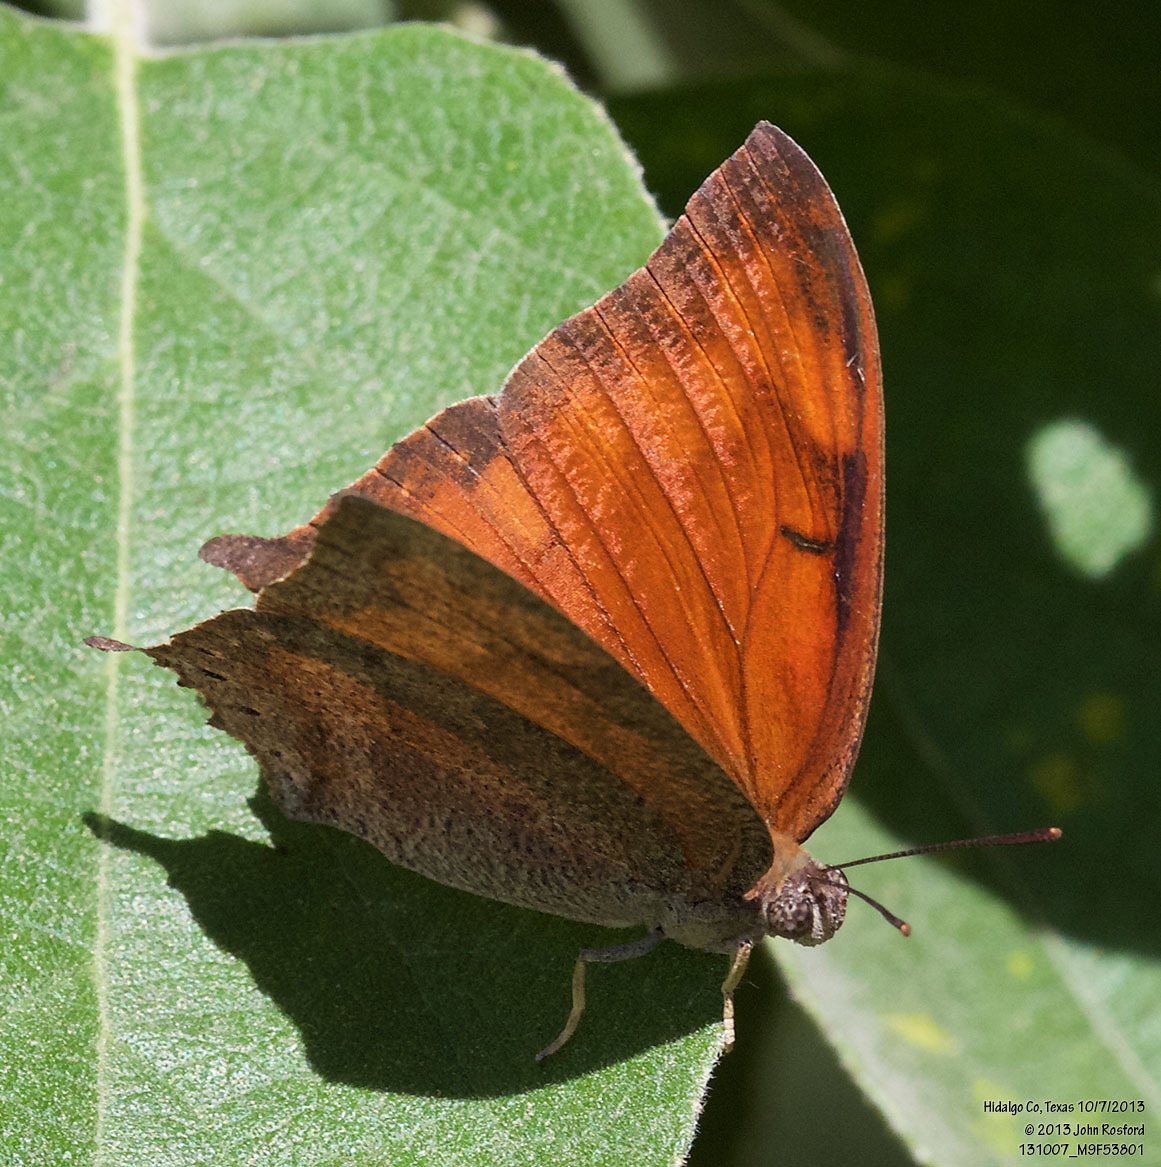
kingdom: Animalia
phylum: Arthropoda
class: Insecta
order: Lepidoptera
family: Nymphalidae
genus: Anaea
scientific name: Anaea aidea
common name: Tropical leafwing
